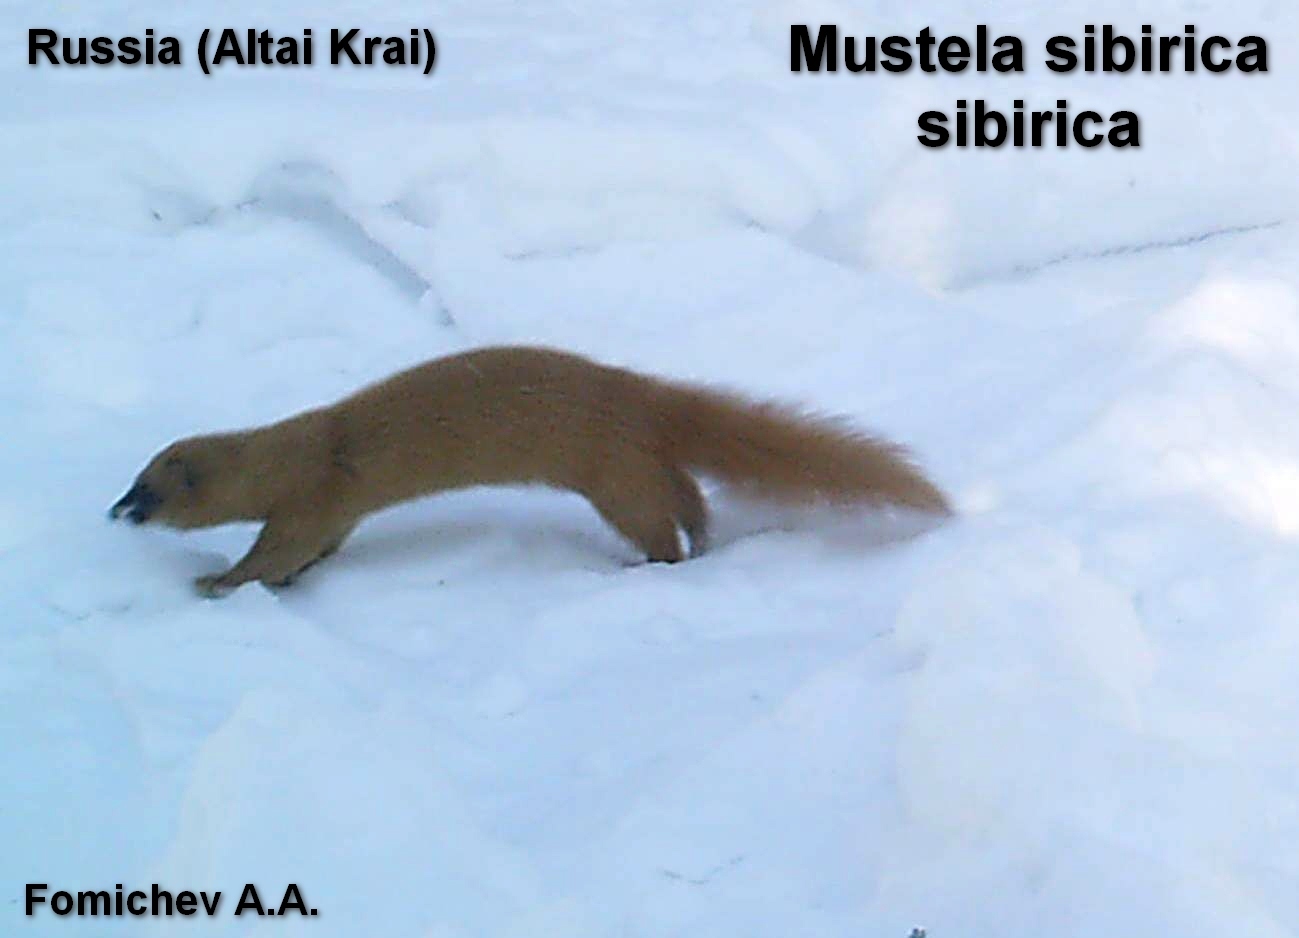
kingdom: Animalia
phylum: Chordata
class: Mammalia
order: Carnivora
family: Mustelidae
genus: Mustela
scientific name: Mustela sibirica
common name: Siberian weasel
